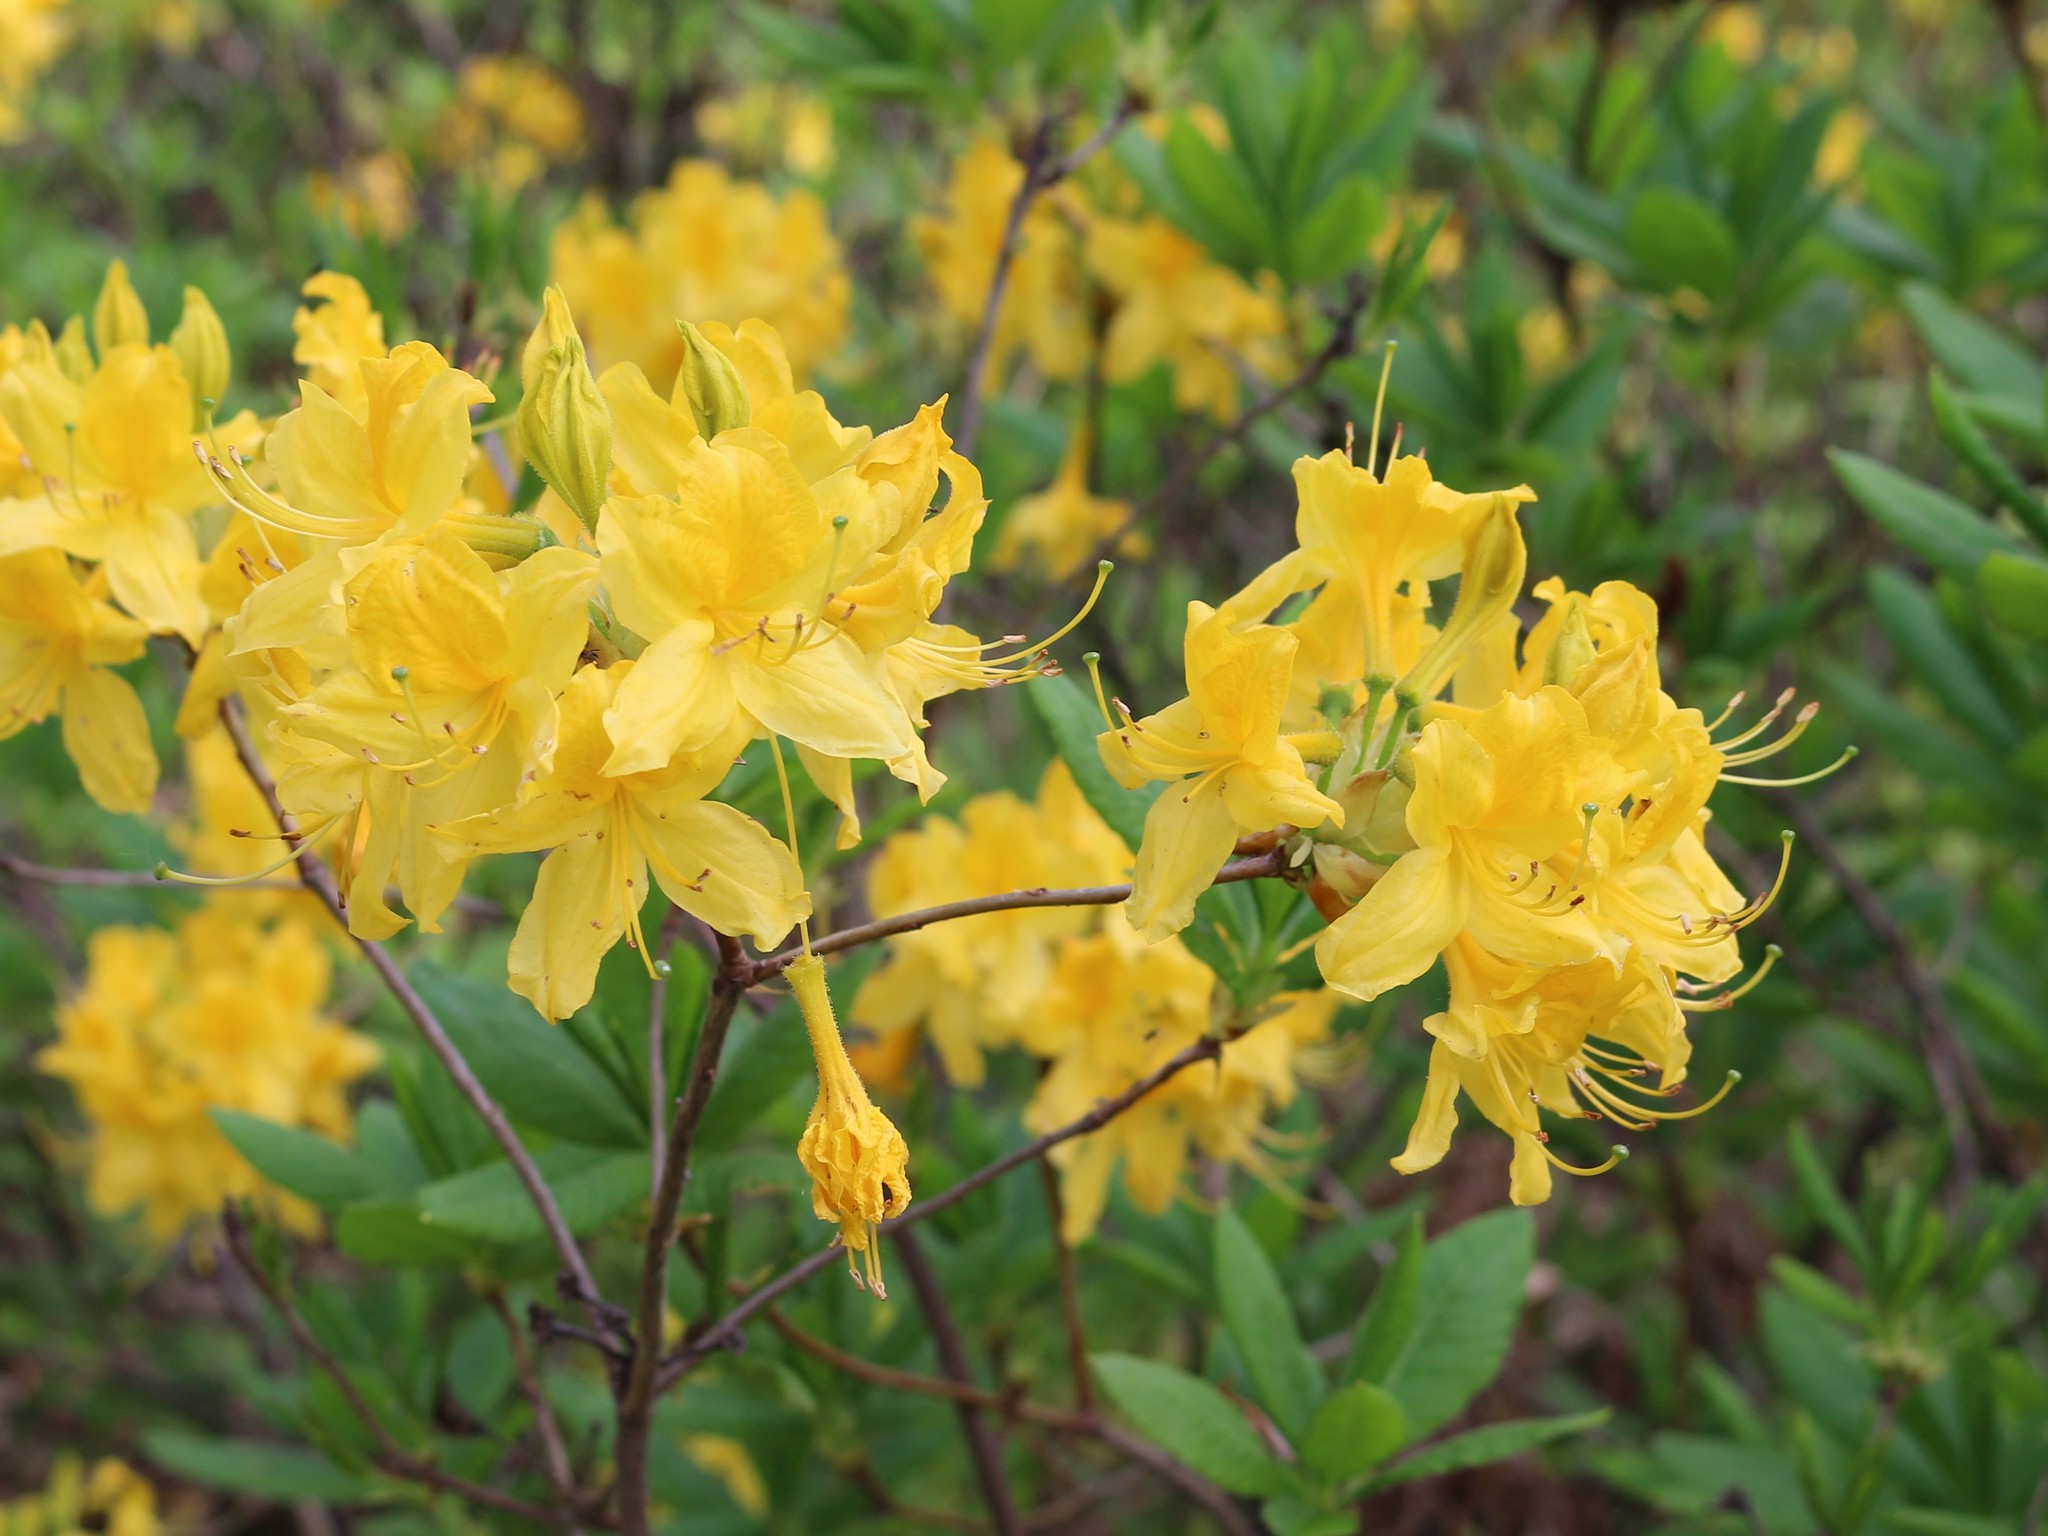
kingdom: Plantae
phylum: Tracheophyta
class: Magnoliopsida
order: Ericales
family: Ericaceae
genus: Rhododendron
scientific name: Rhododendron luteum
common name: Yellow azalea
